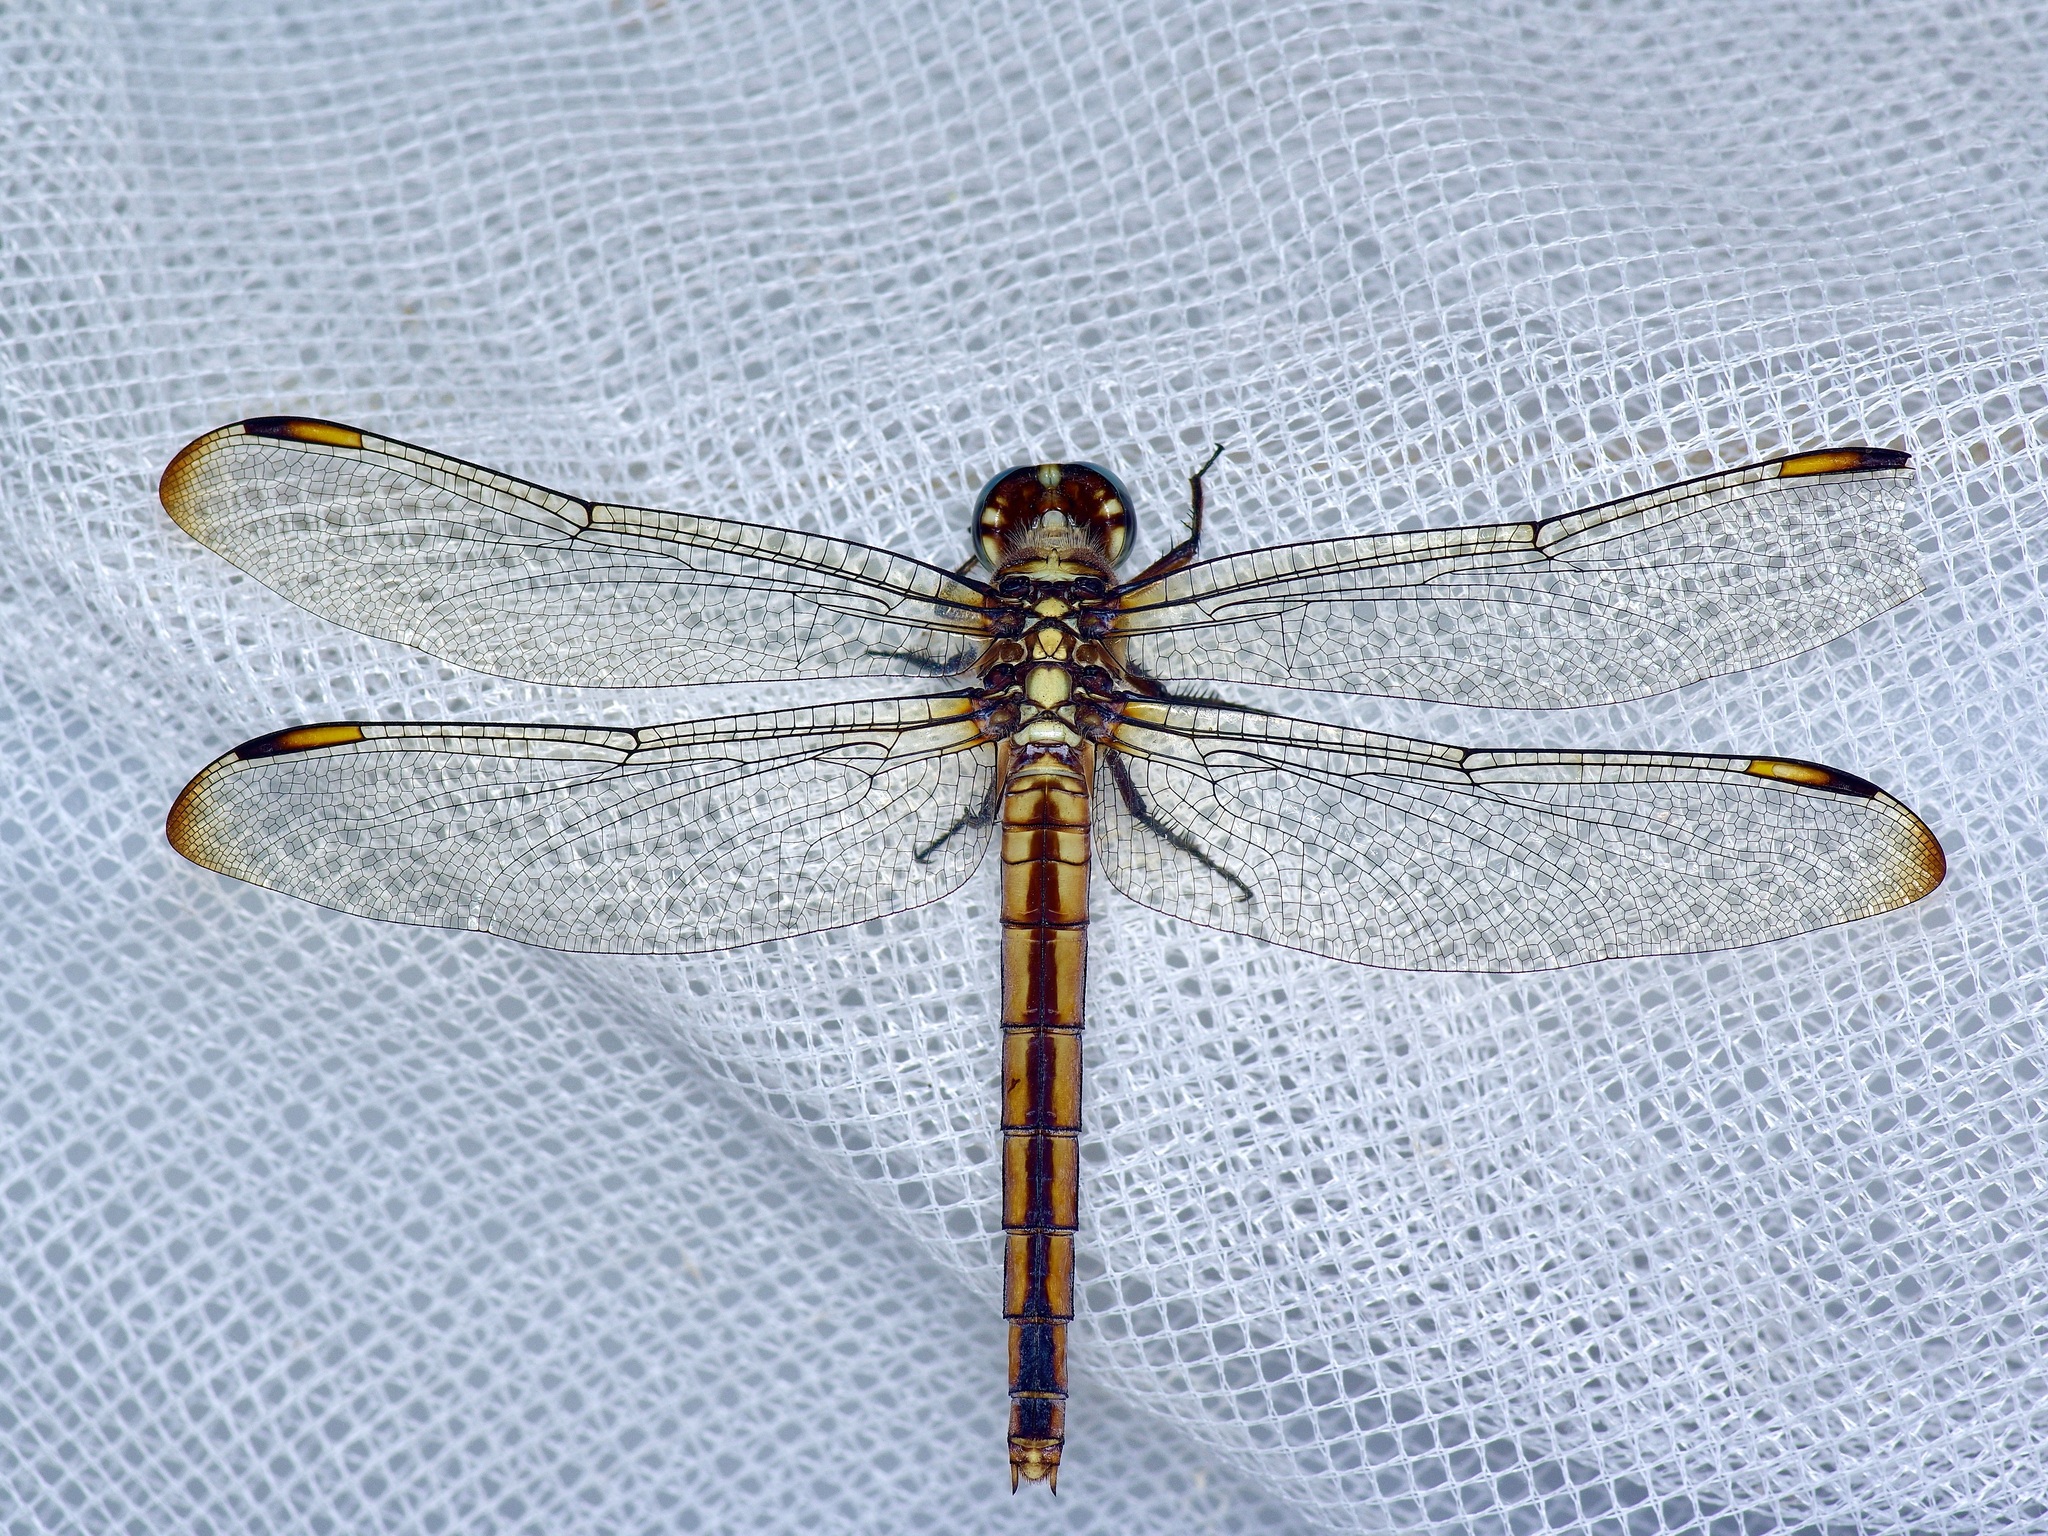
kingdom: Animalia
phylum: Arthropoda
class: Insecta
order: Odonata
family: Libellulidae
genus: Libellula
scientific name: Libellula comanche
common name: Comanche skimmer
